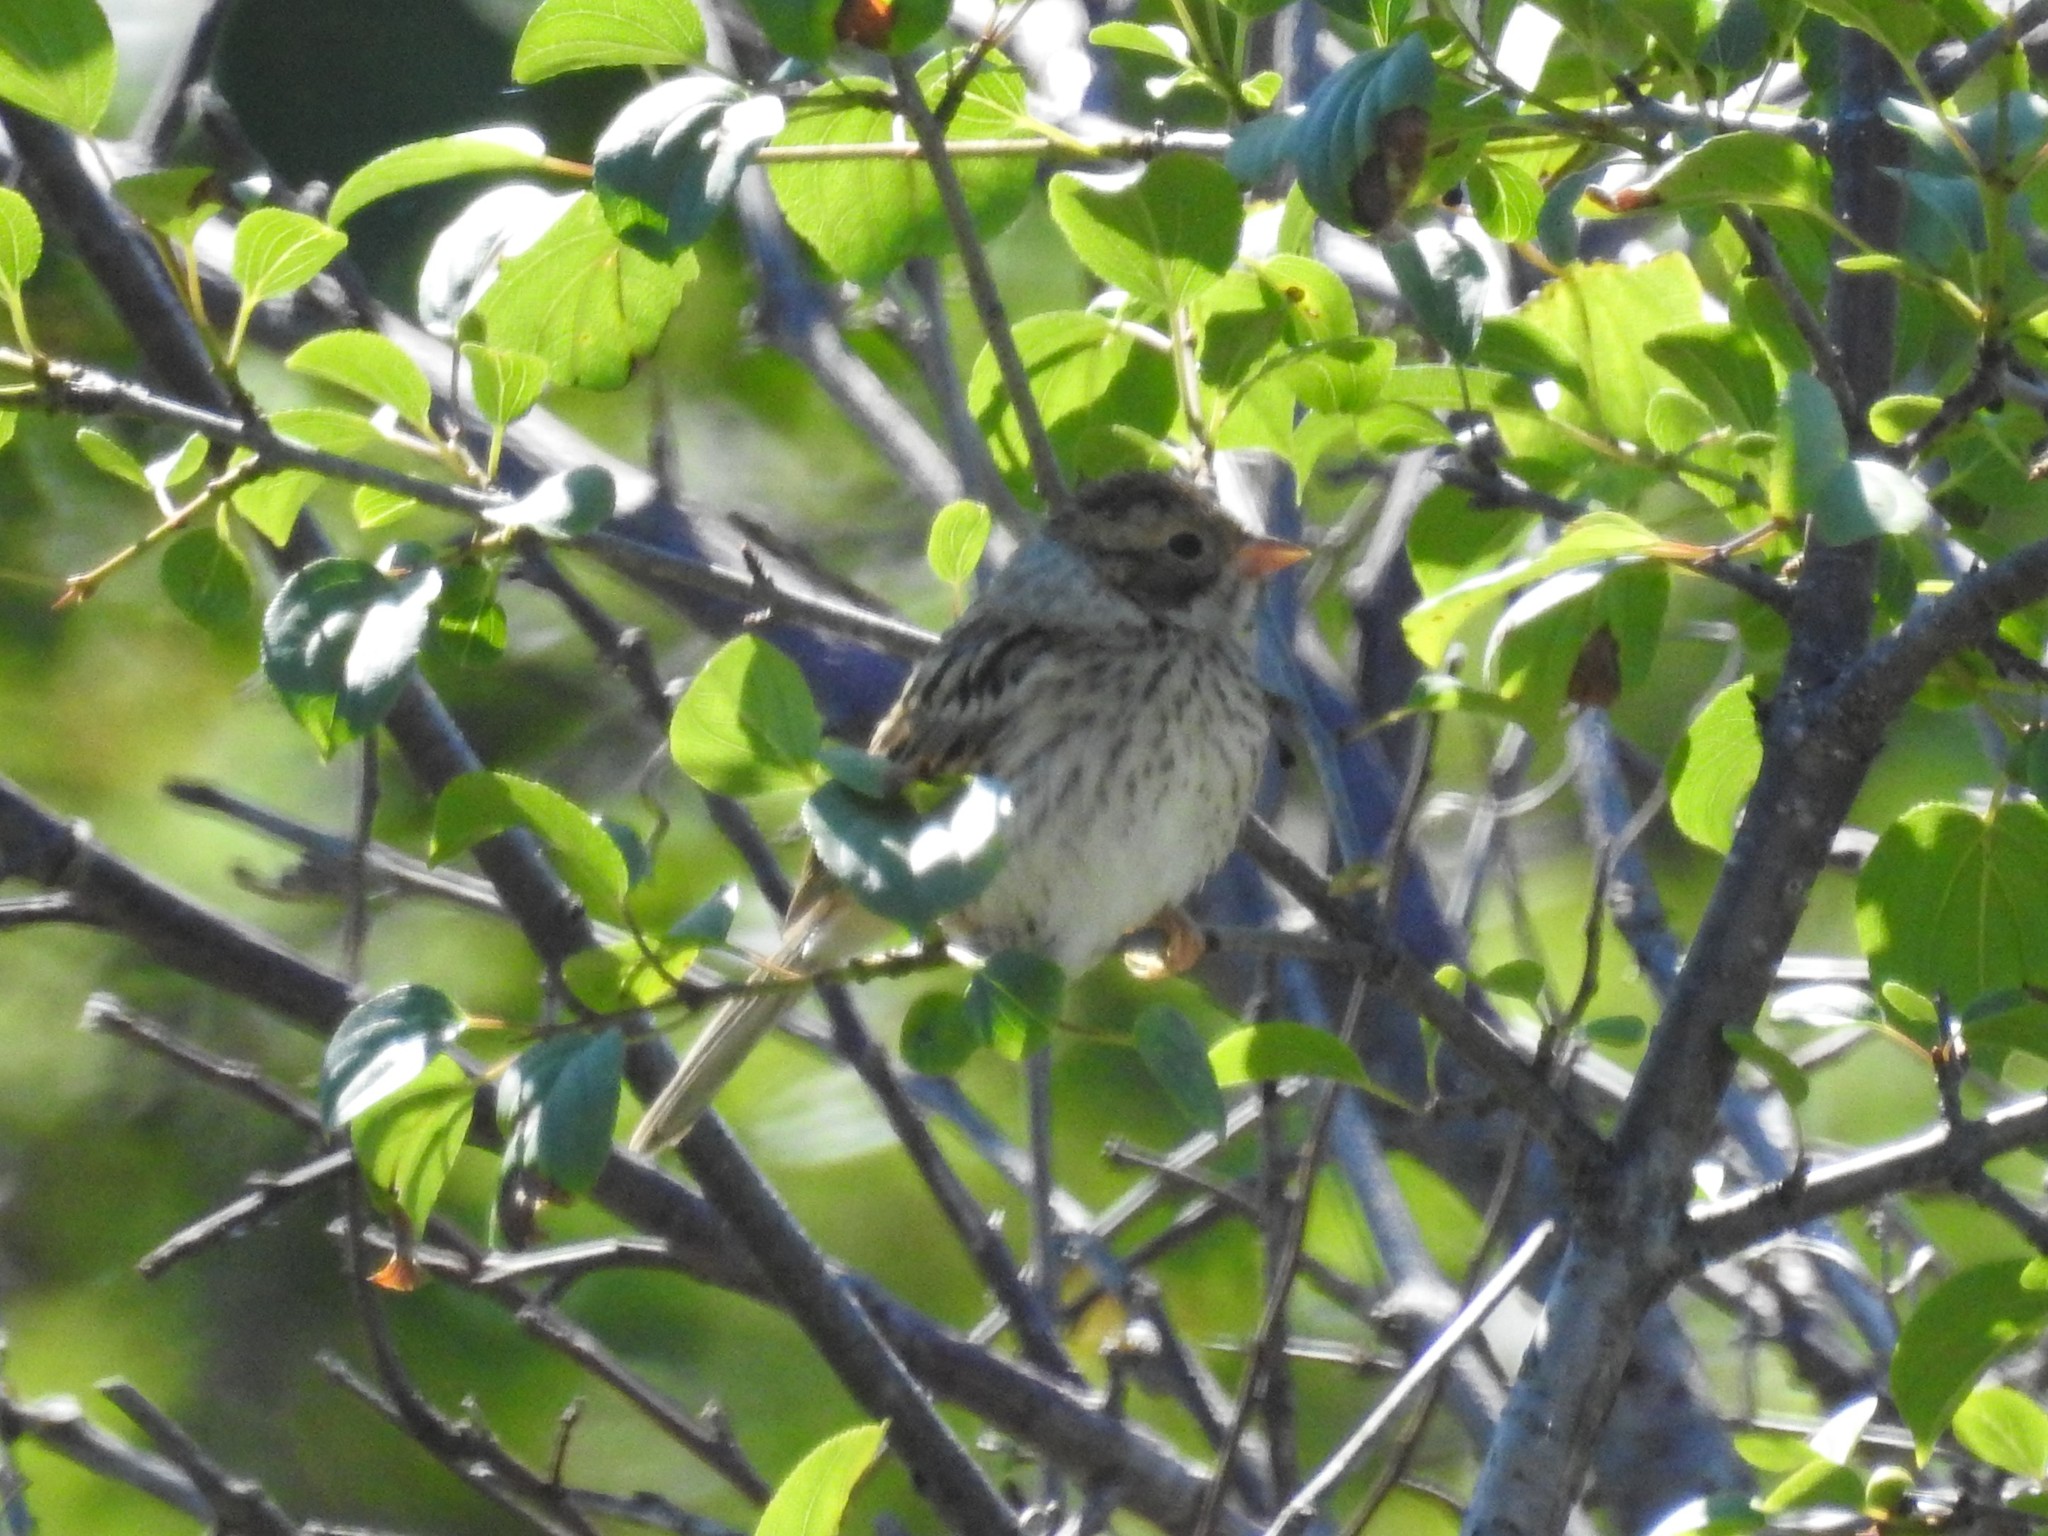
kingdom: Animalia
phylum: Chordata
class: Aves
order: Passeriformes
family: Passerellidae
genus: Spizella
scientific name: Spizella pallida
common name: Clay-colored sparrow
